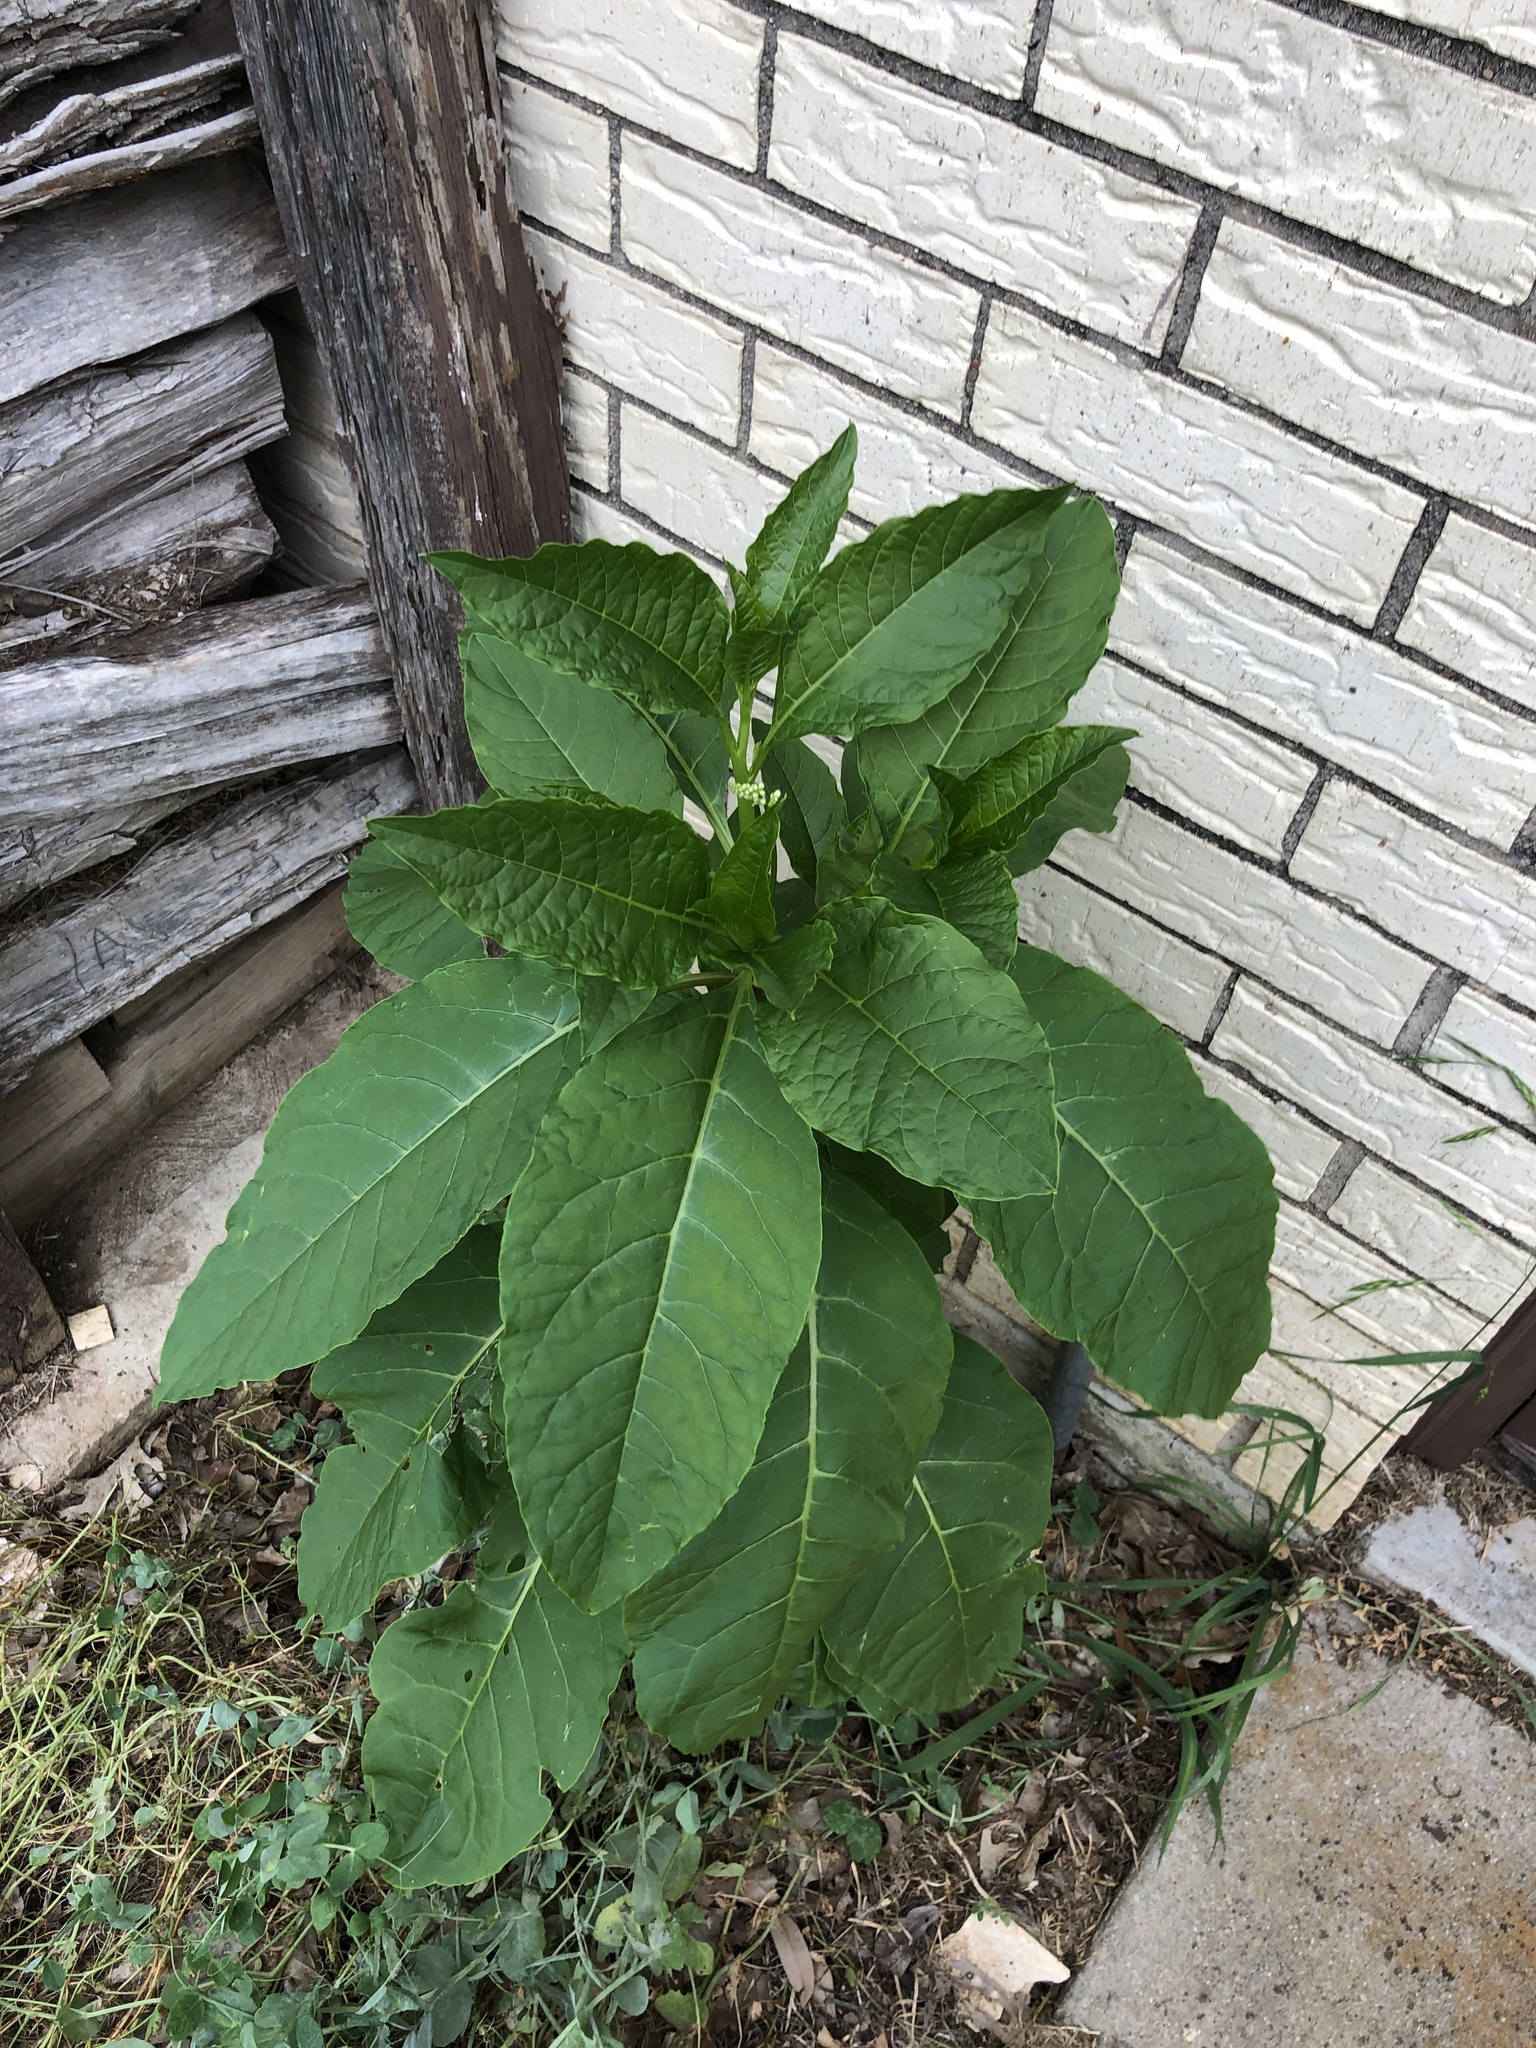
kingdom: Plantae
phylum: Tracheophyta
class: Magnoliopsida
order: Caryophyllales
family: Phytolaccaceae
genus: Phytolacca
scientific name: Phytolacca americana
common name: American pokeweed
